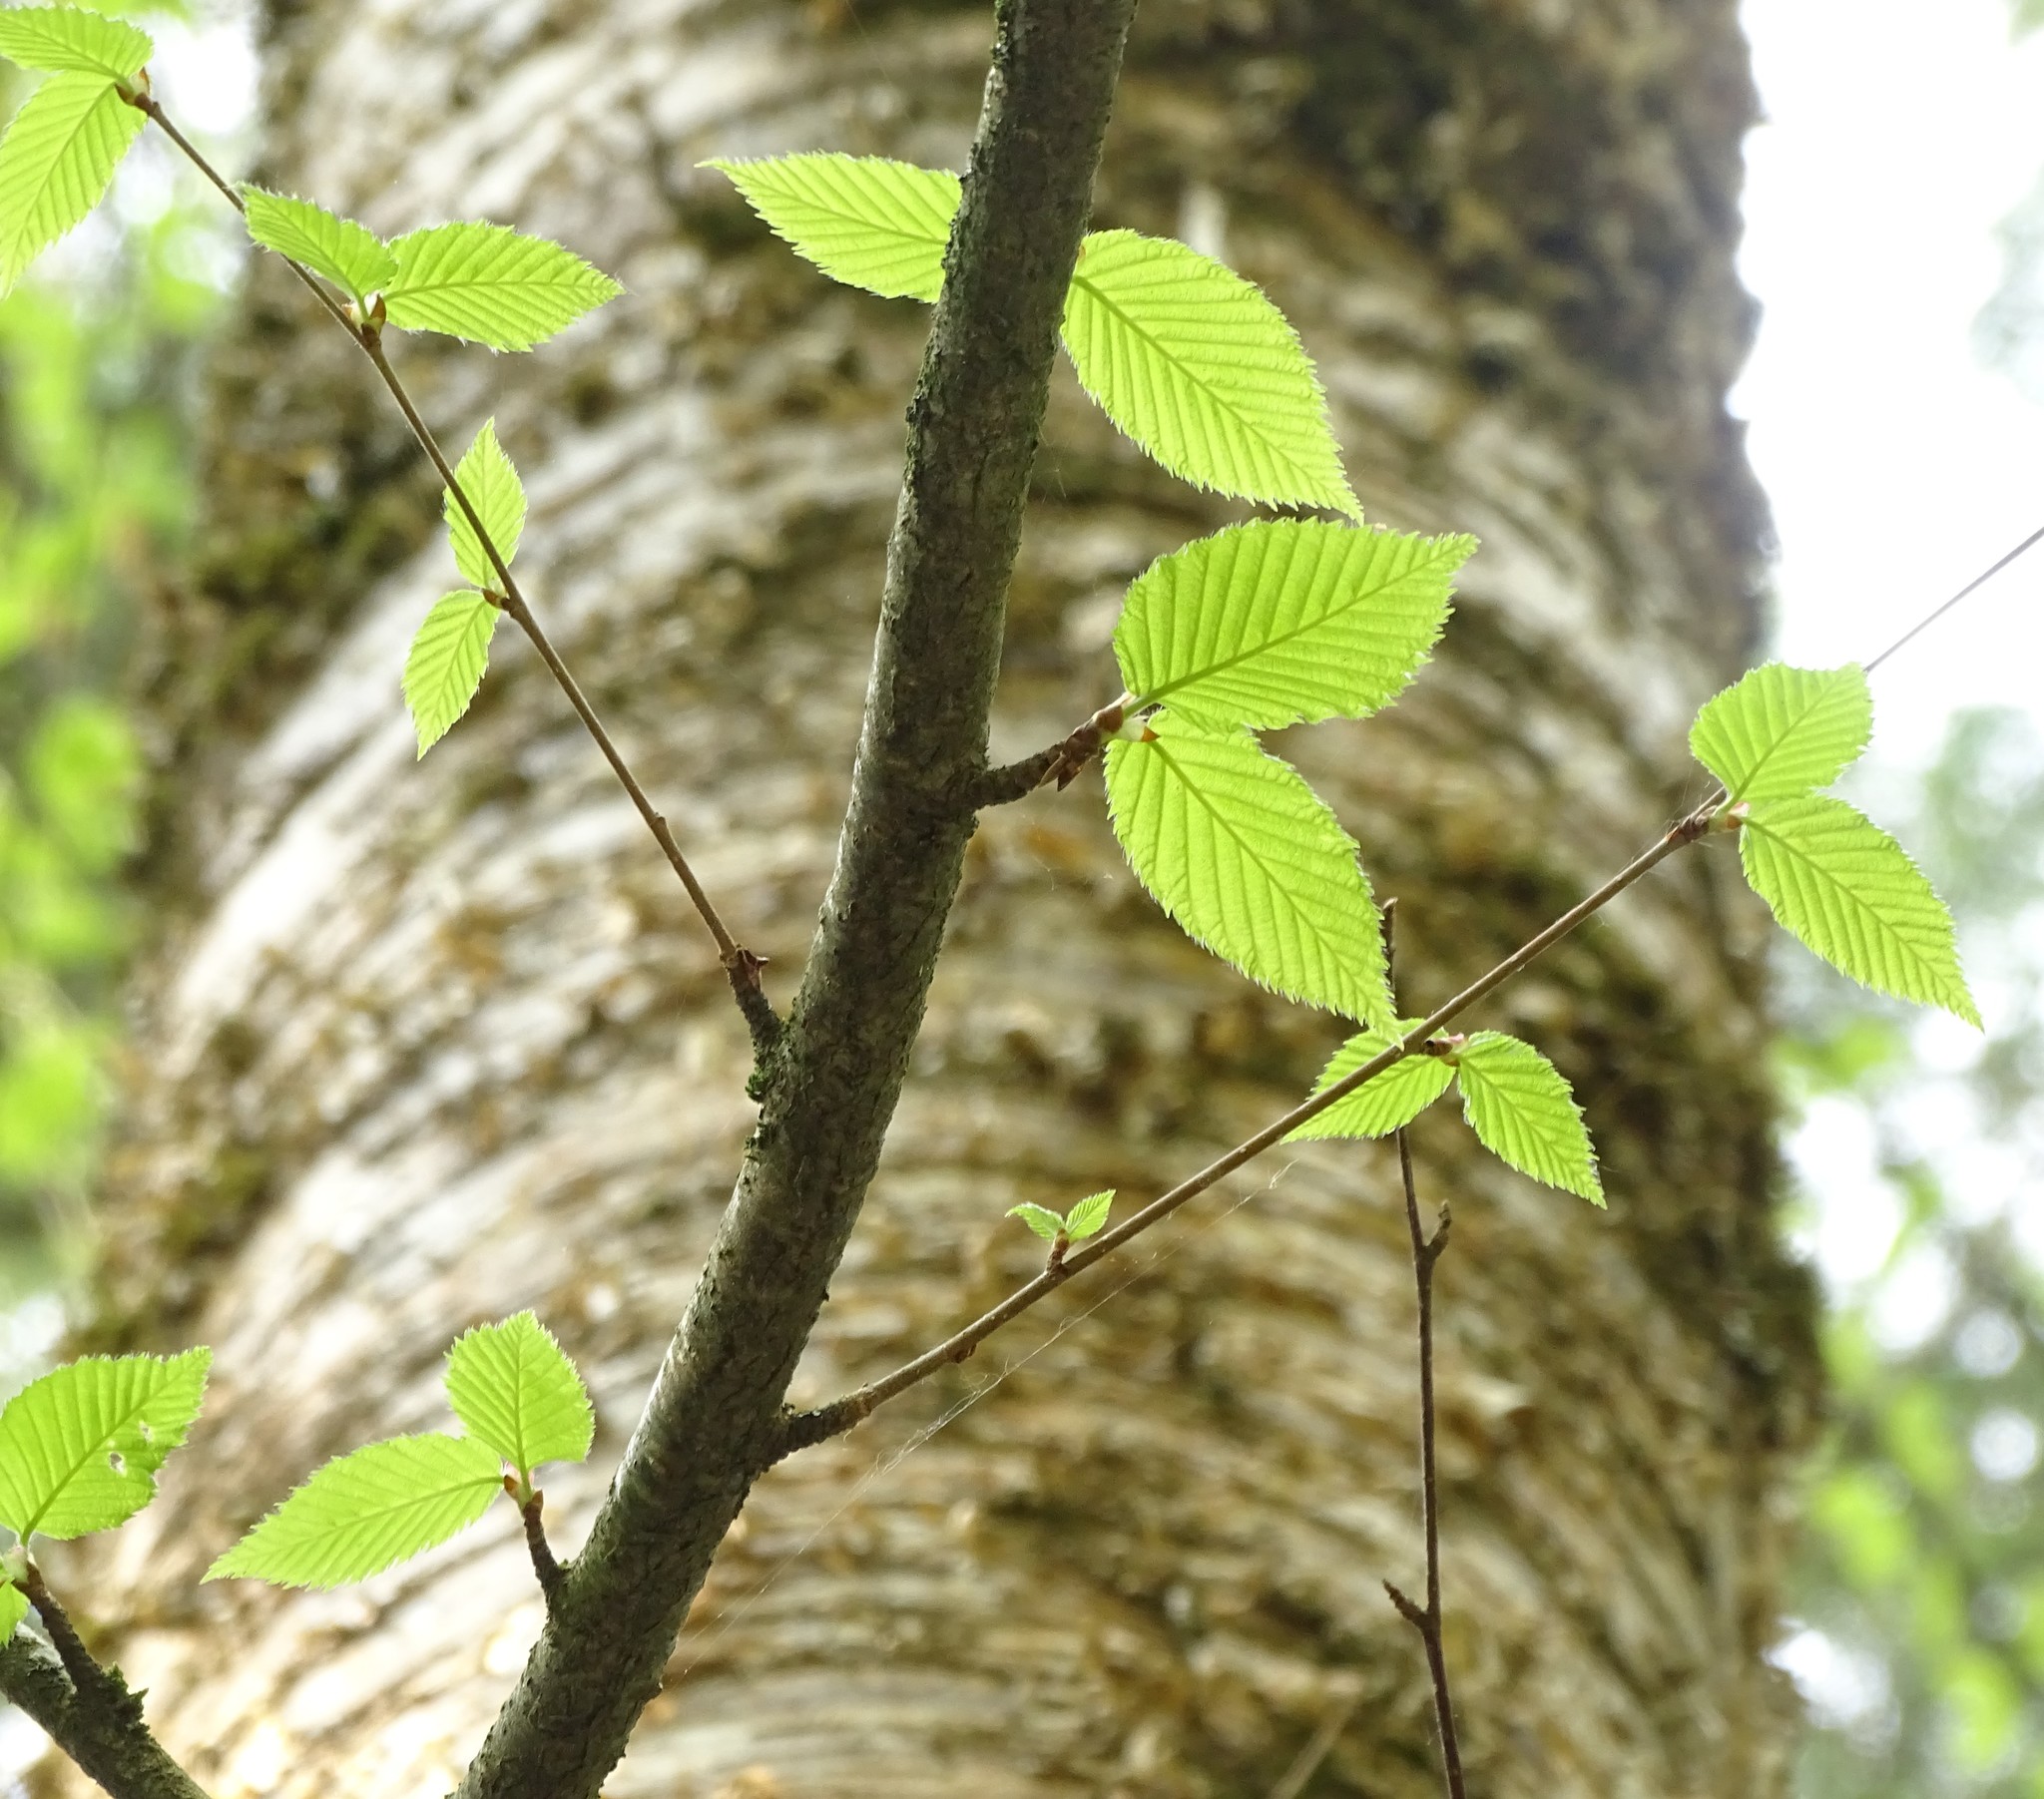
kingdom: Plantae
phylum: Tracheophyta
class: Magnoliopsida
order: Fagales
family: Betulaceae
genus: Betula
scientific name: Betula alleghaniensis
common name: Yellow birch
